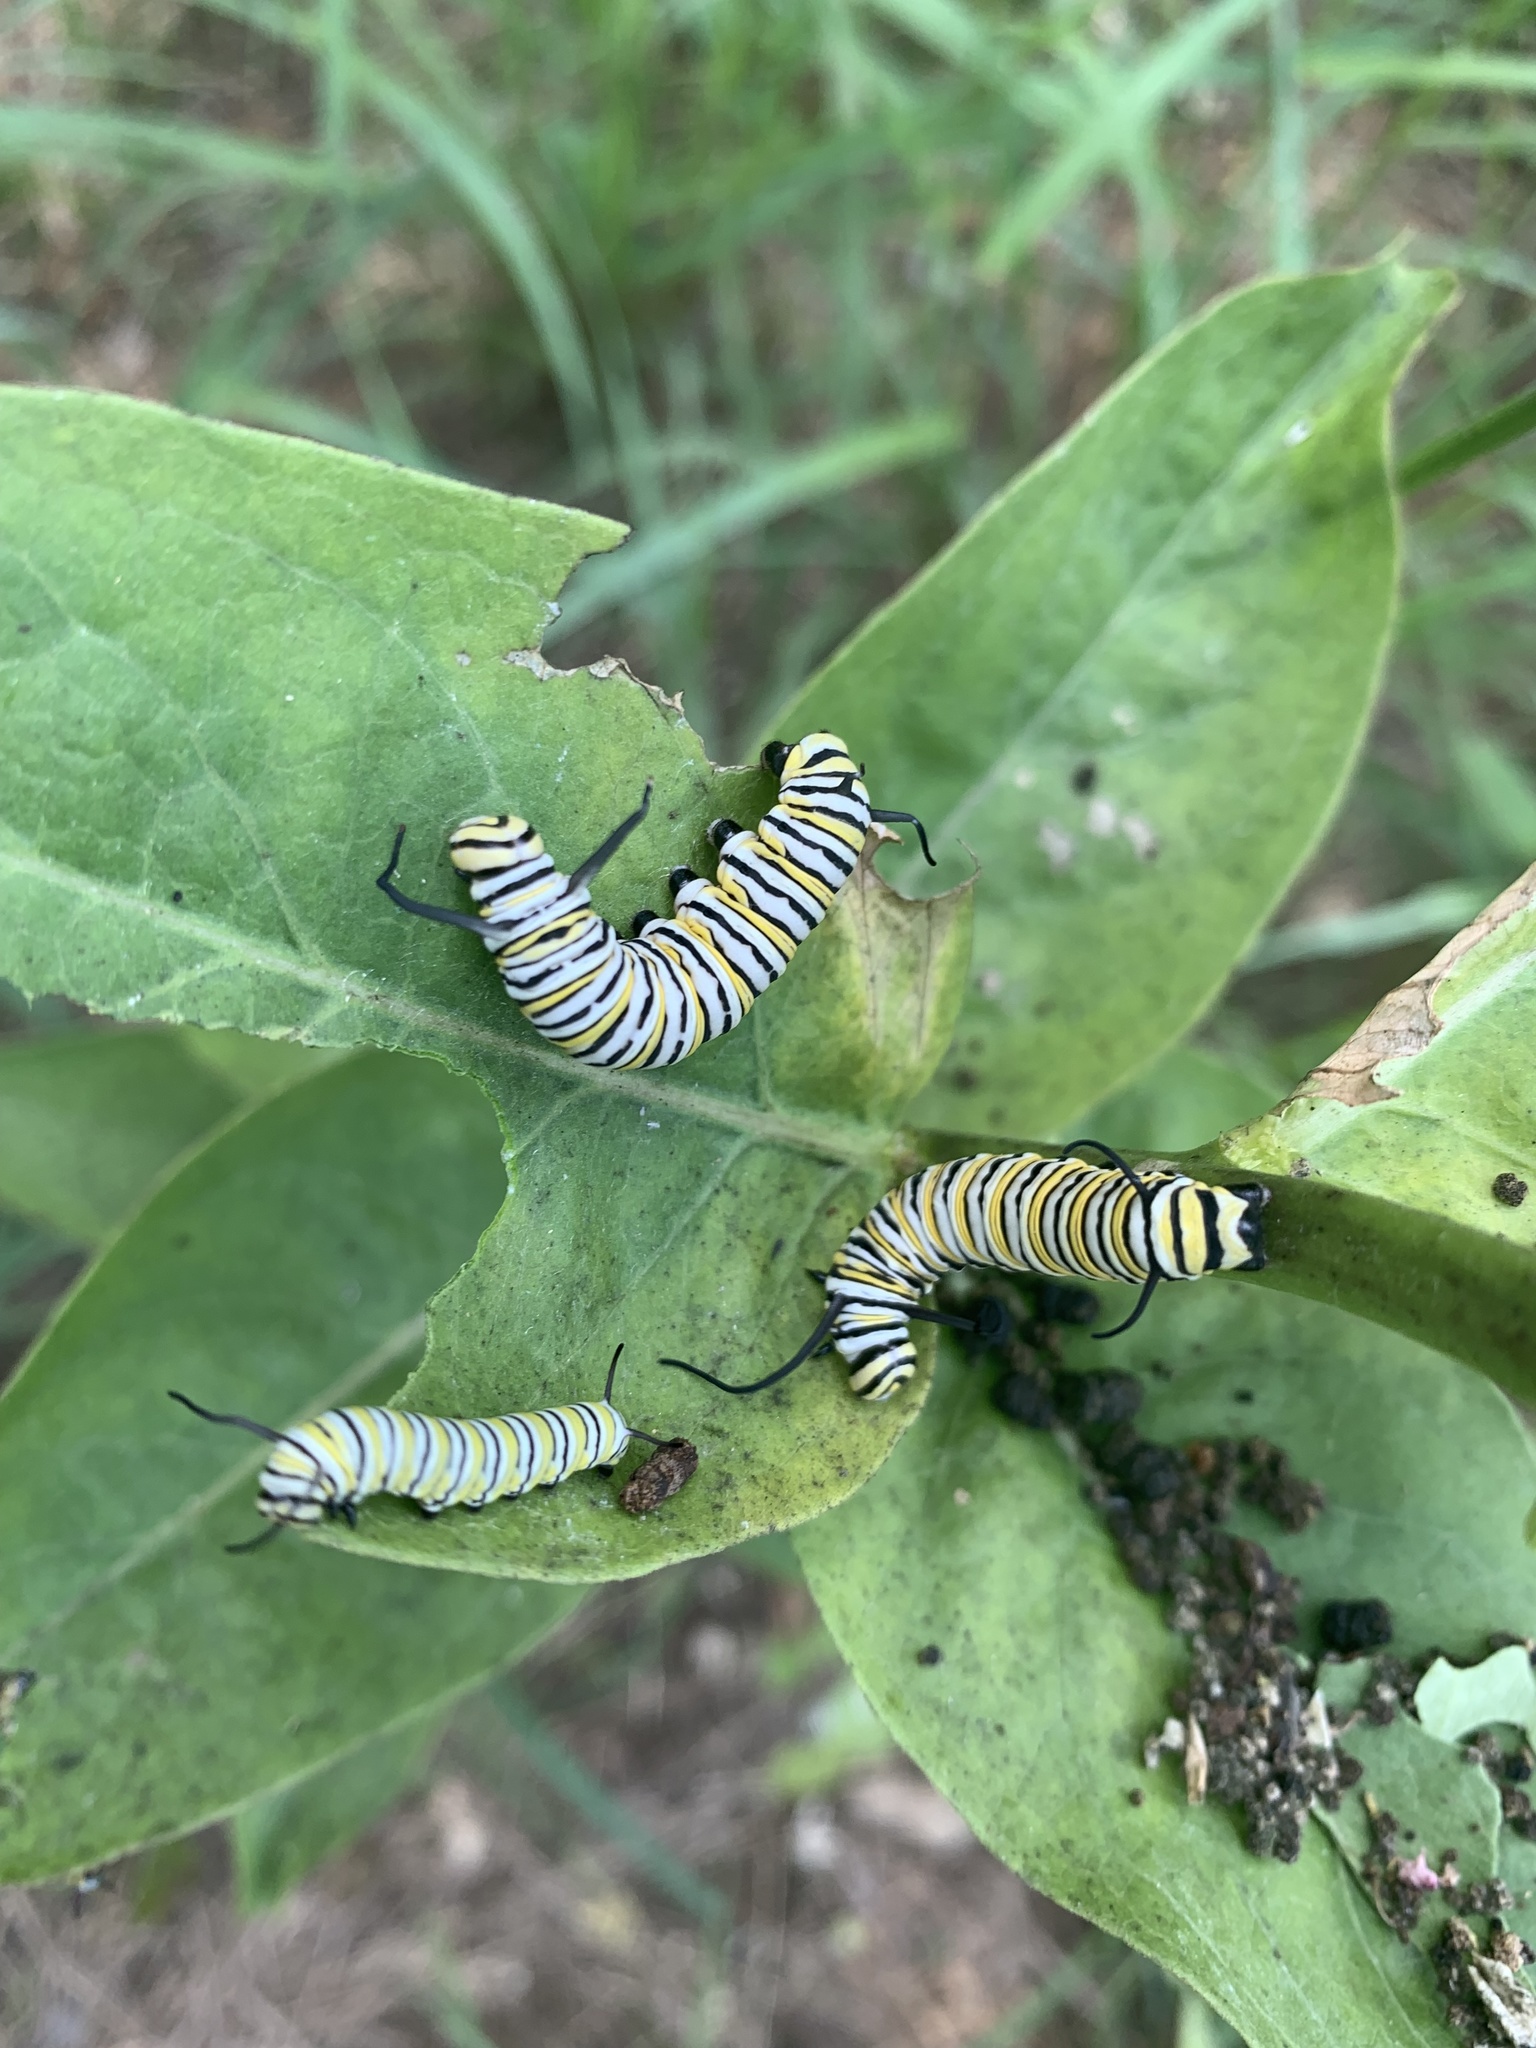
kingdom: Animalia
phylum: Arthropoda
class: Insecta
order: Lepidoptera
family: Nymphalidae
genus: Danaus
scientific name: Danaus plexippus
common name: Monarch
